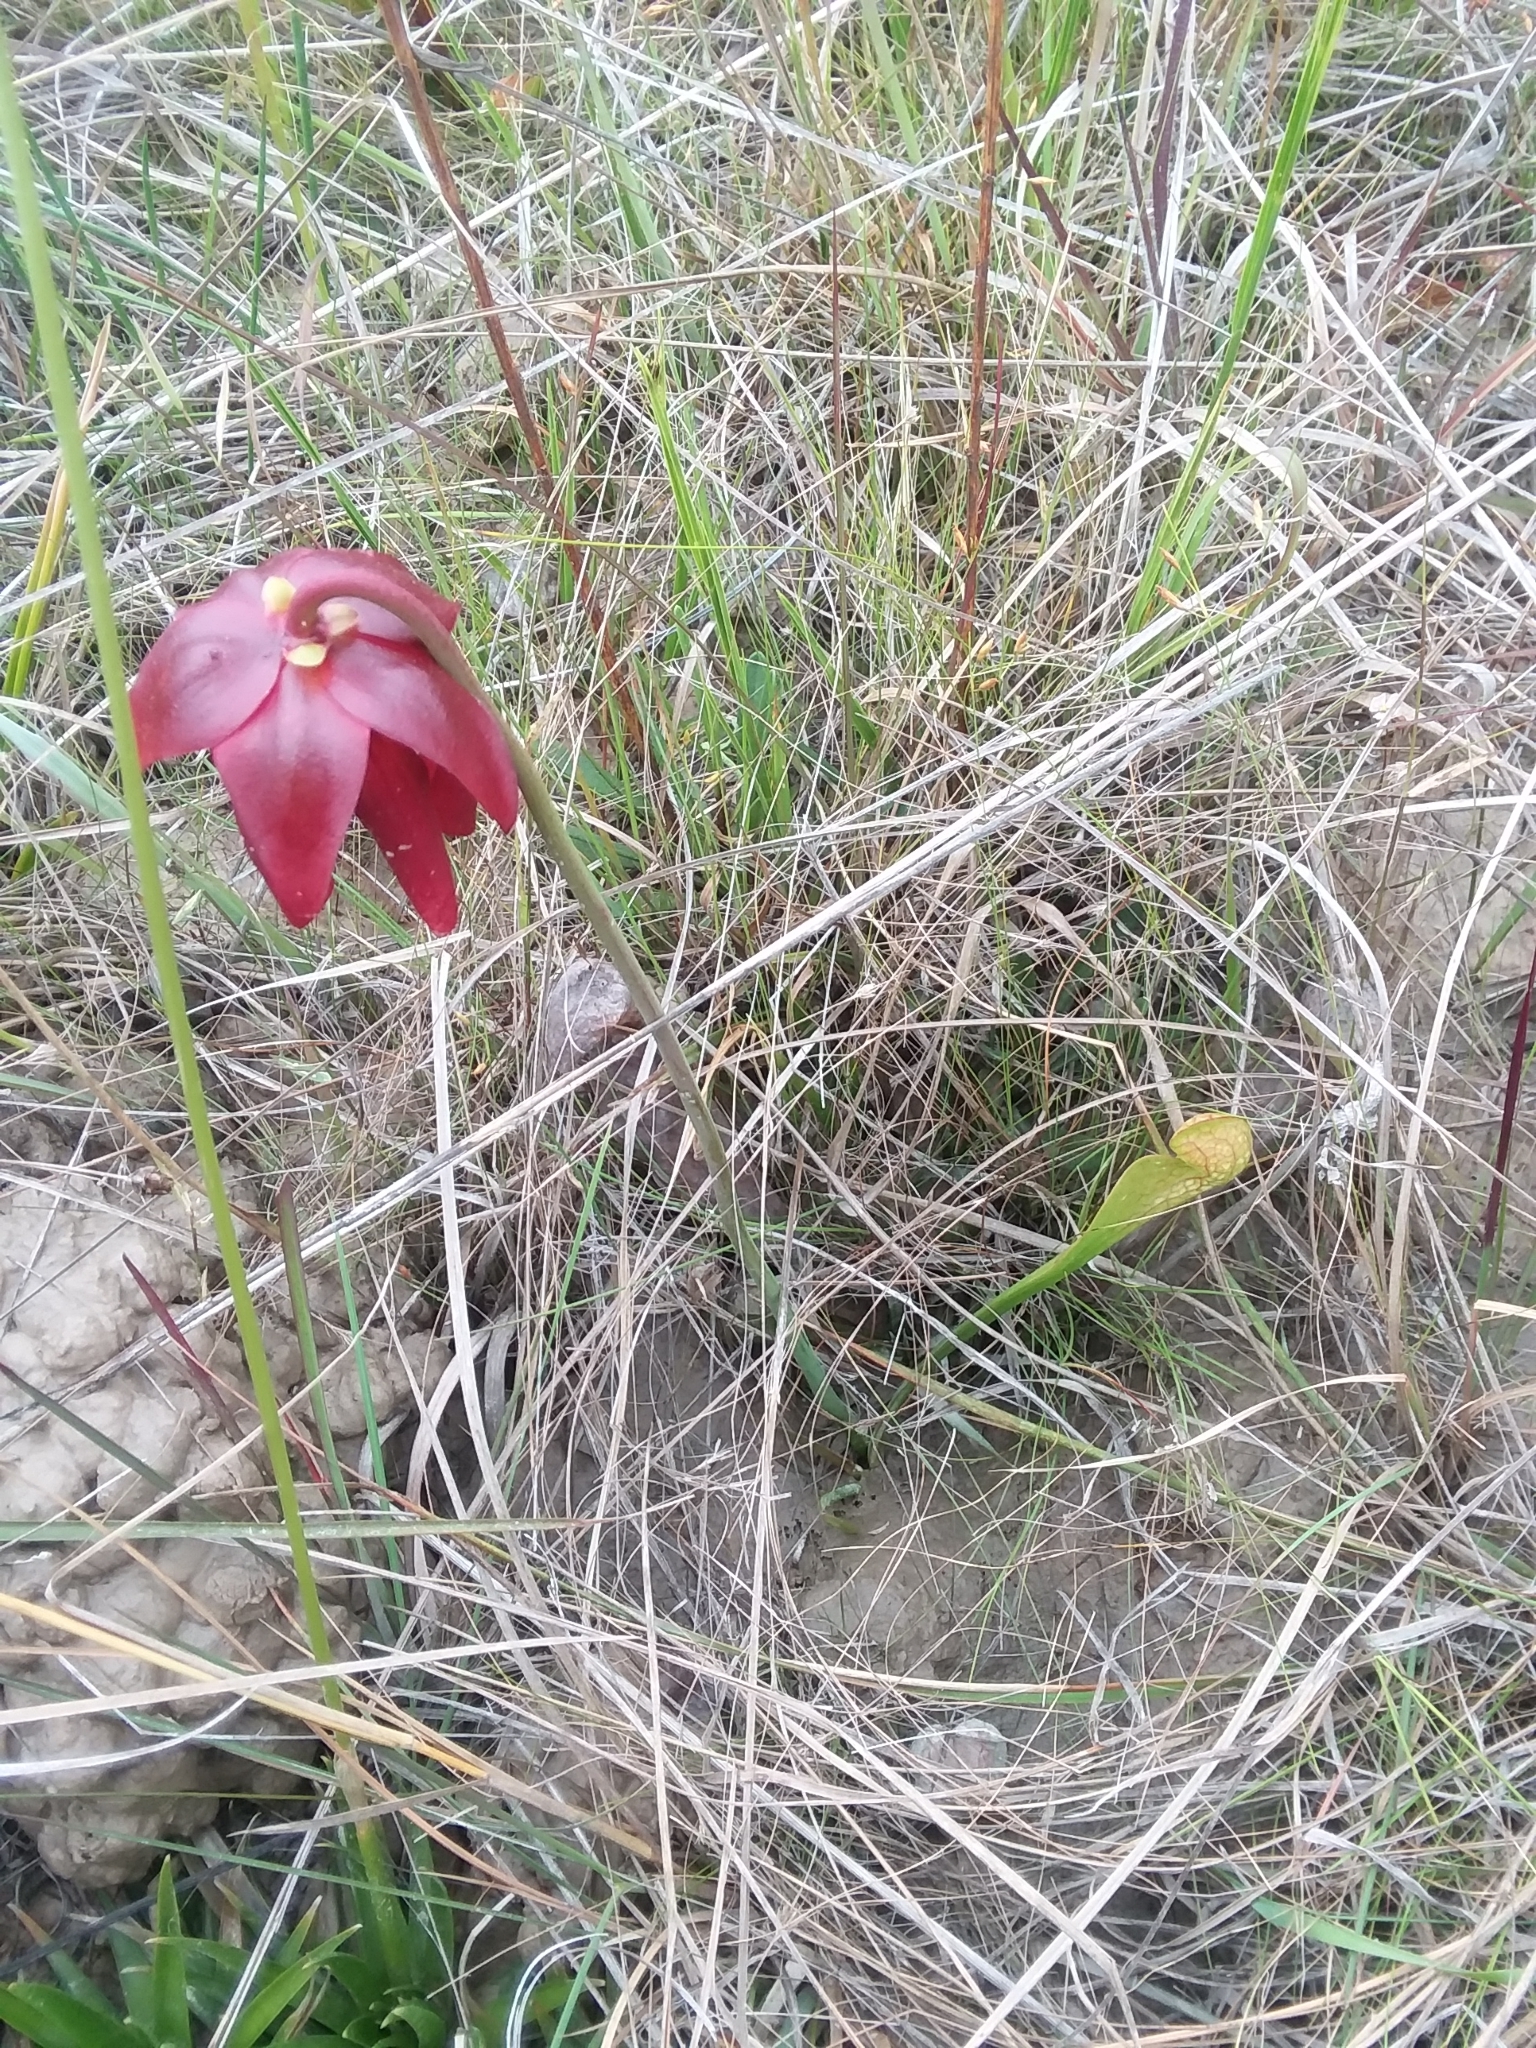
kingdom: Plantae
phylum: Tracheophyta
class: Magnoliopsida
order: Ericales
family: Sarraceniaceae
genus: Sarracenia
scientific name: Sarracenia psittacina
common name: Parrot pitcherplant
